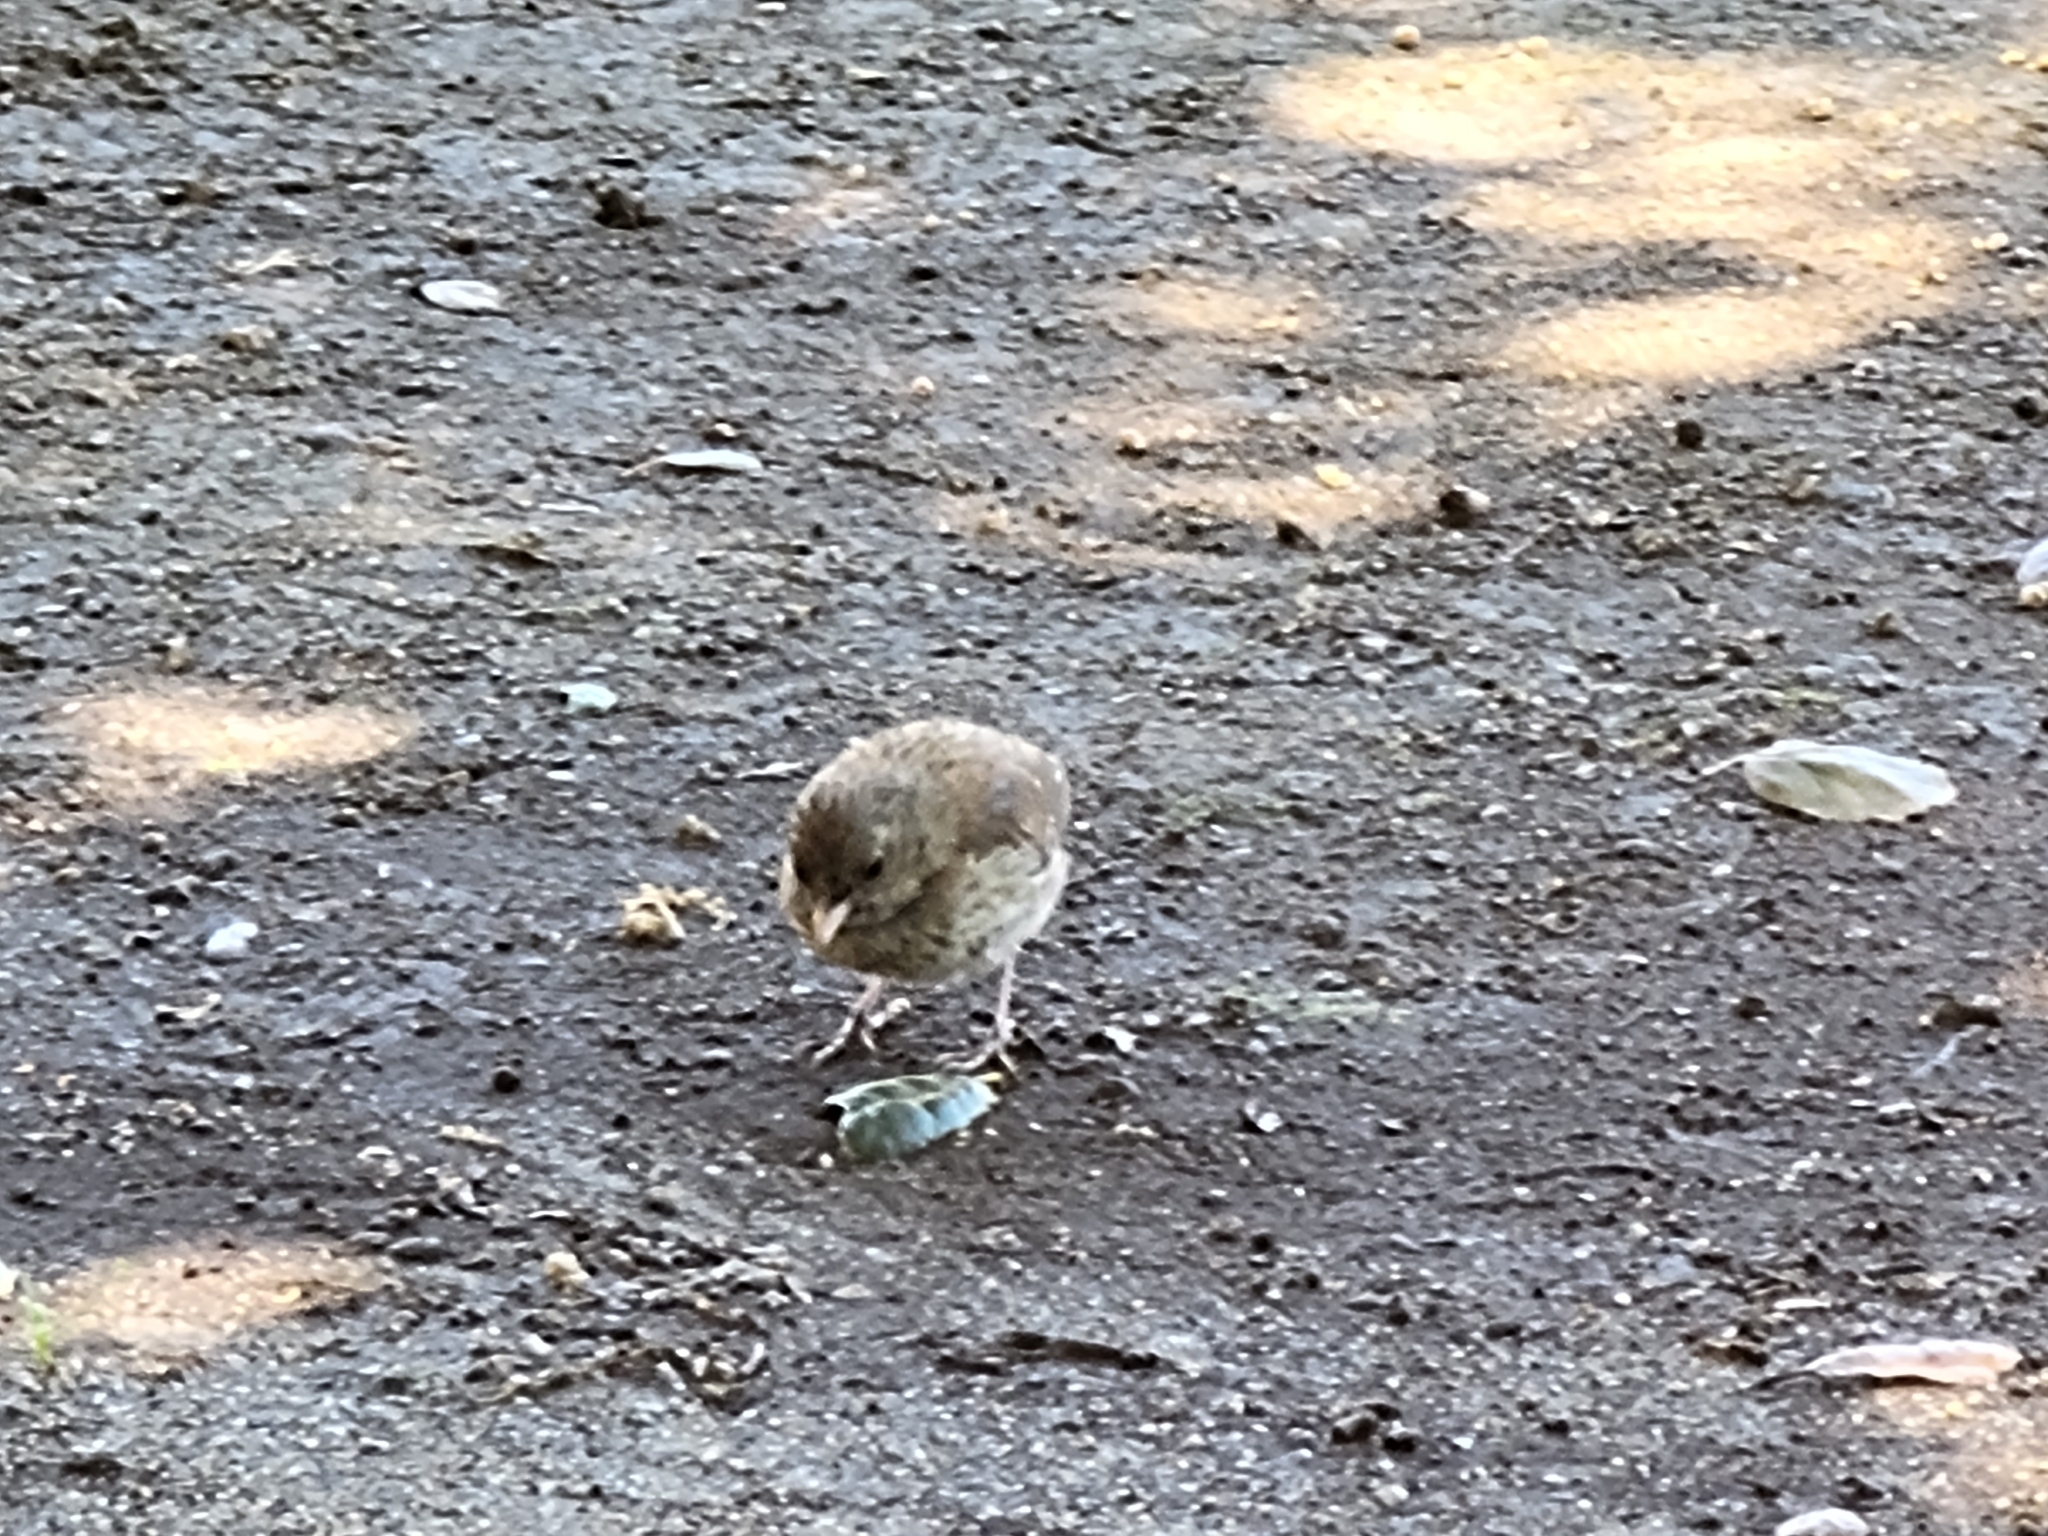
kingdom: Animalia
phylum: Chordata
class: Aves
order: Passeriformes
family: Passerellidae
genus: Junco
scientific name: Junco hyemalis
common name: Dark-eyed junco
